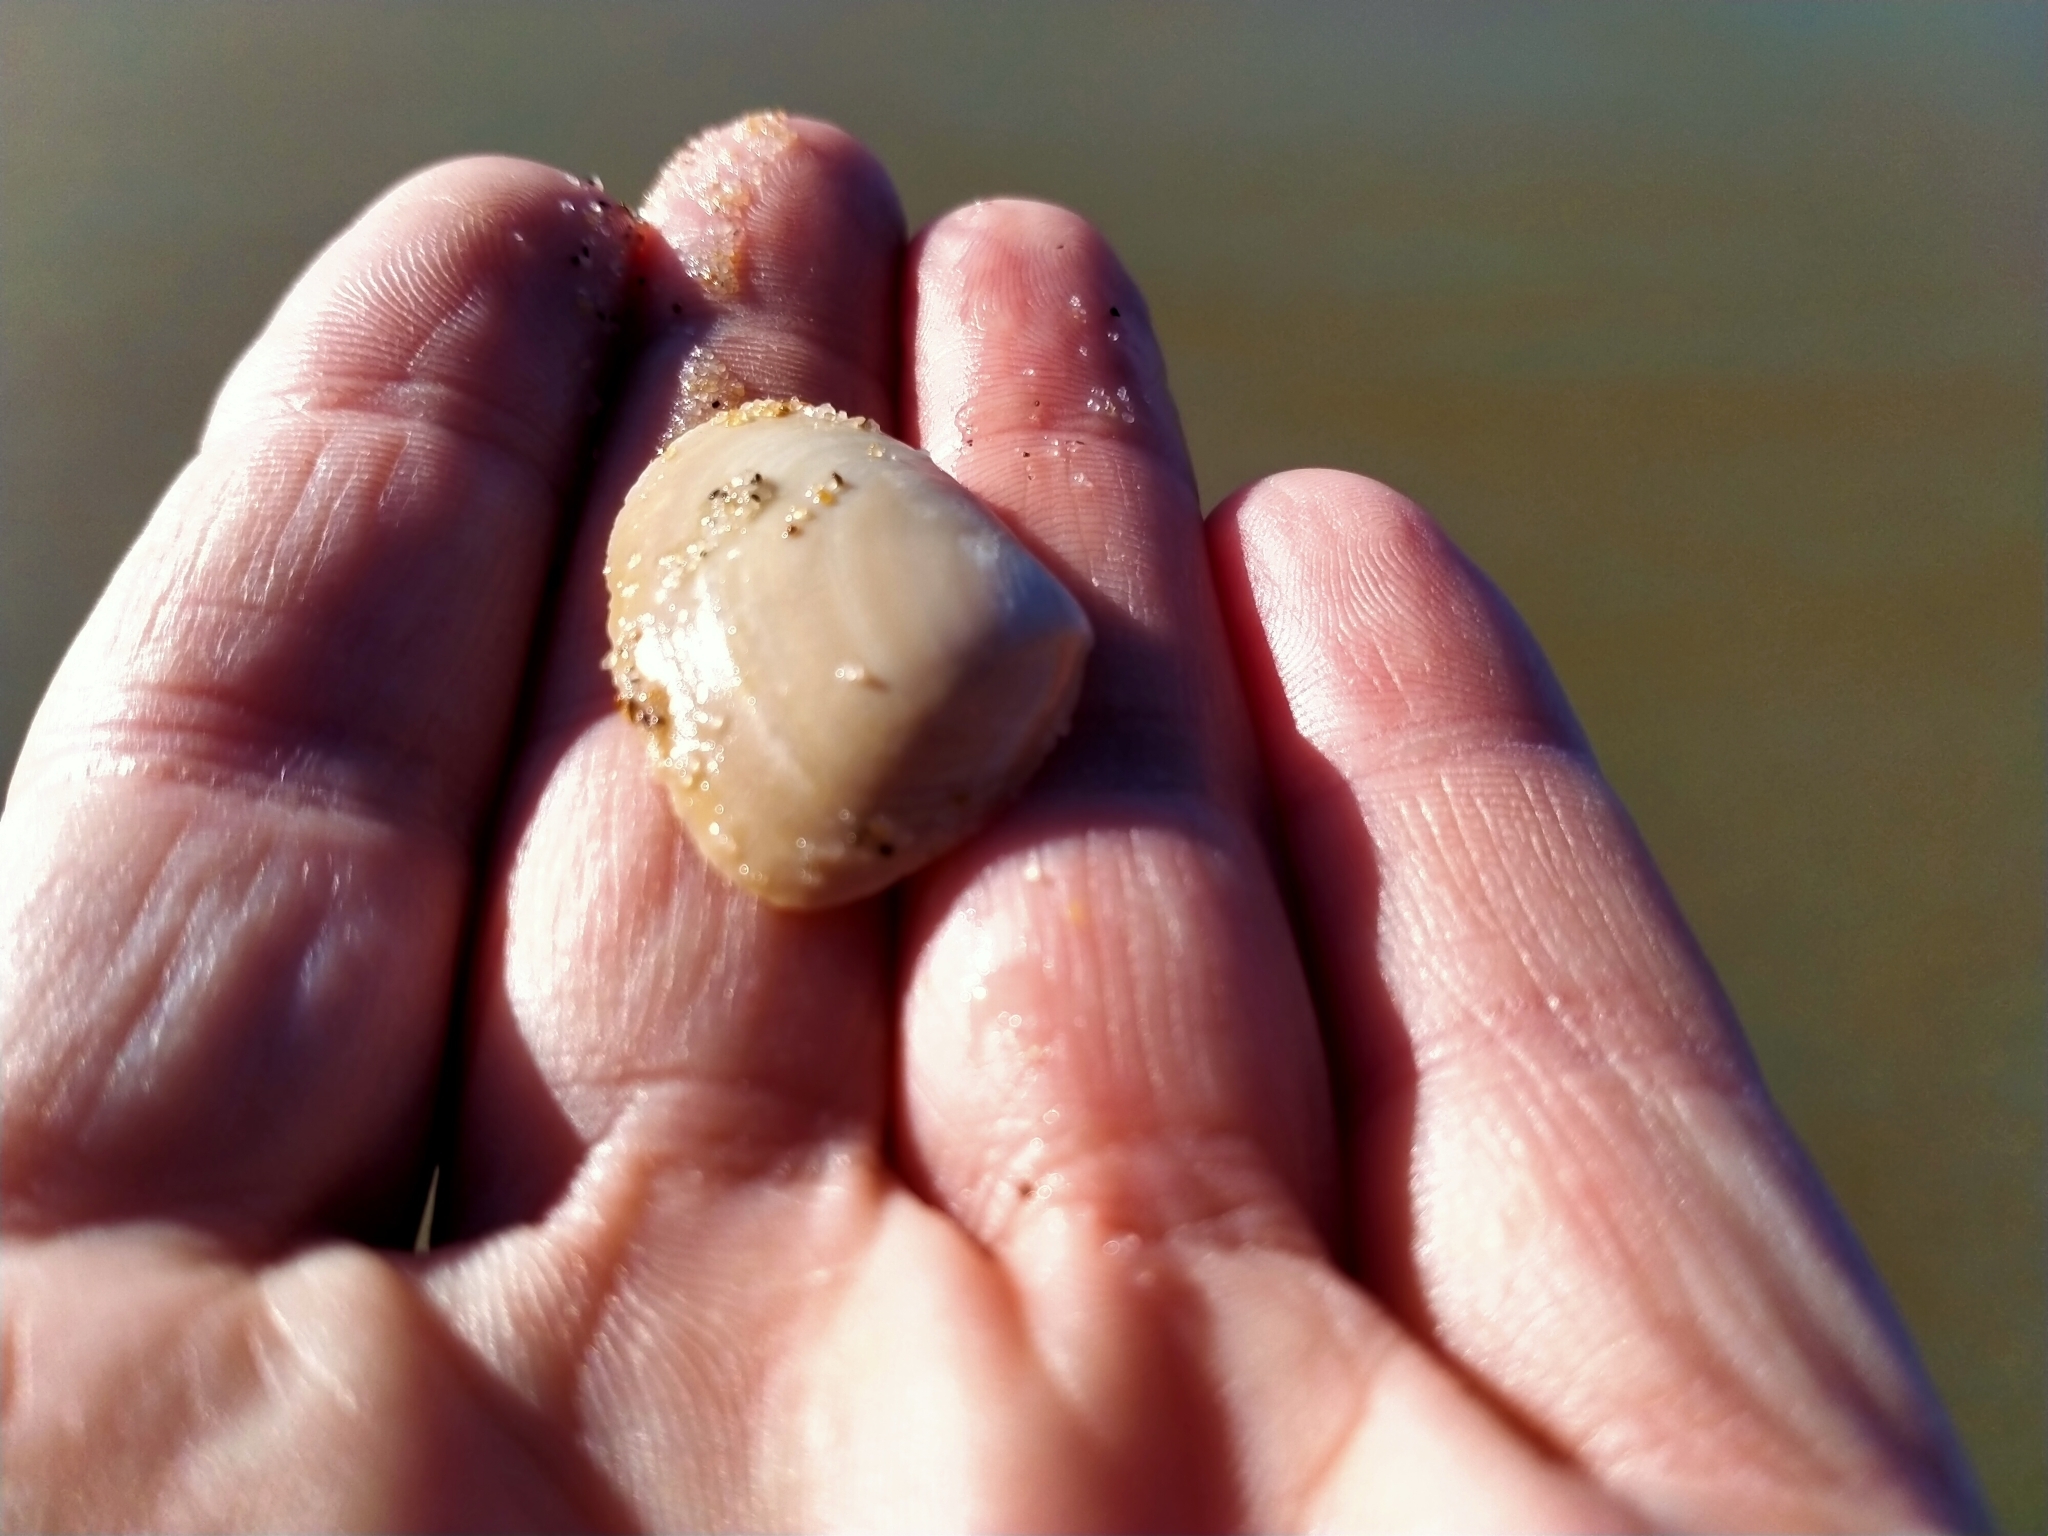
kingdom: Animalia
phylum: Mollusca
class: Bivalvia
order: Venerida
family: Mesodesmatidae
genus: Paphies
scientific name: Paphies donacina
